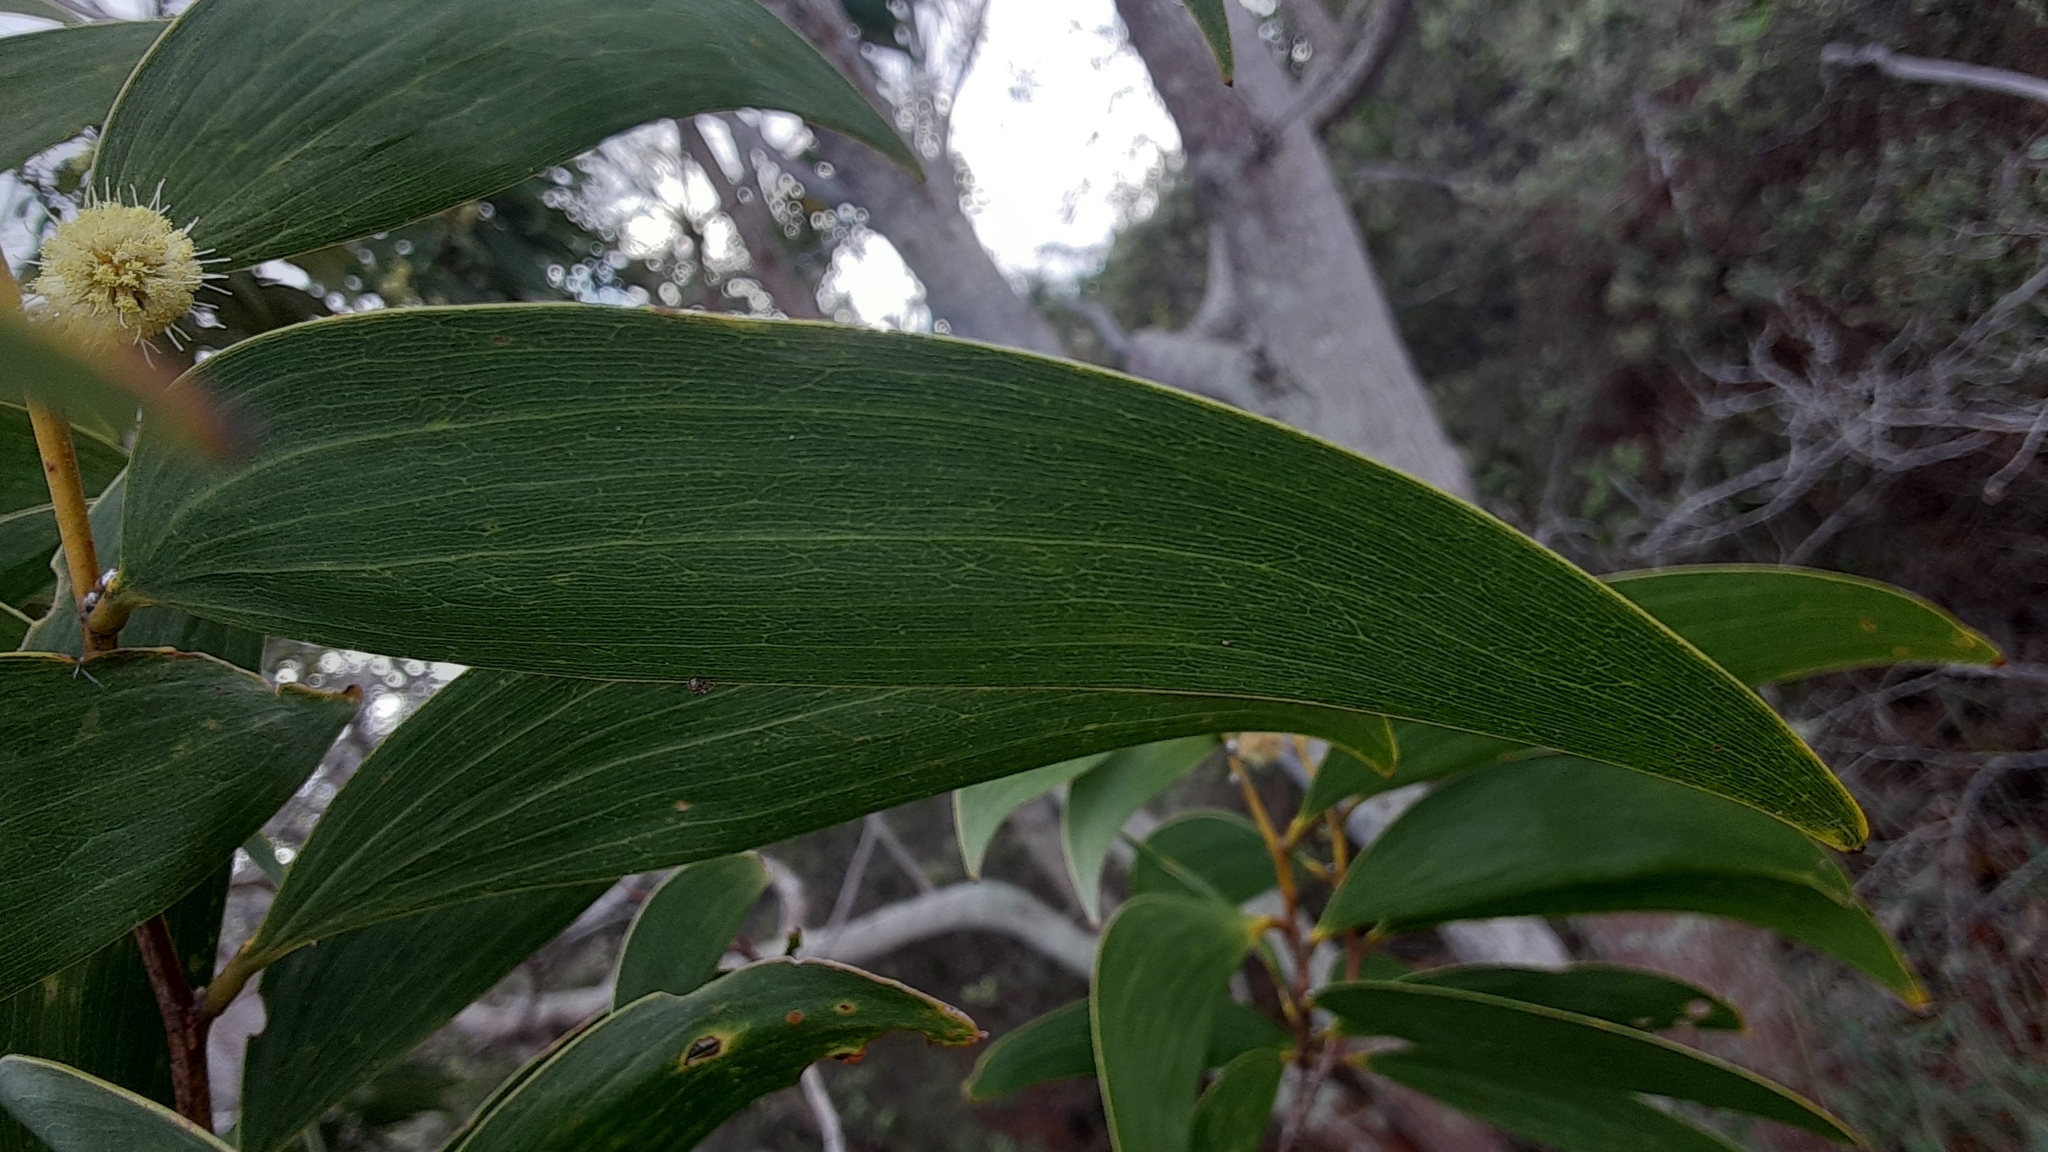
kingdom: Plantae
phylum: Tracheophyta
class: Magnoliopsida
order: Fabales
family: Fabaceae
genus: Acacia
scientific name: Acacia koa
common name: Gray koa
